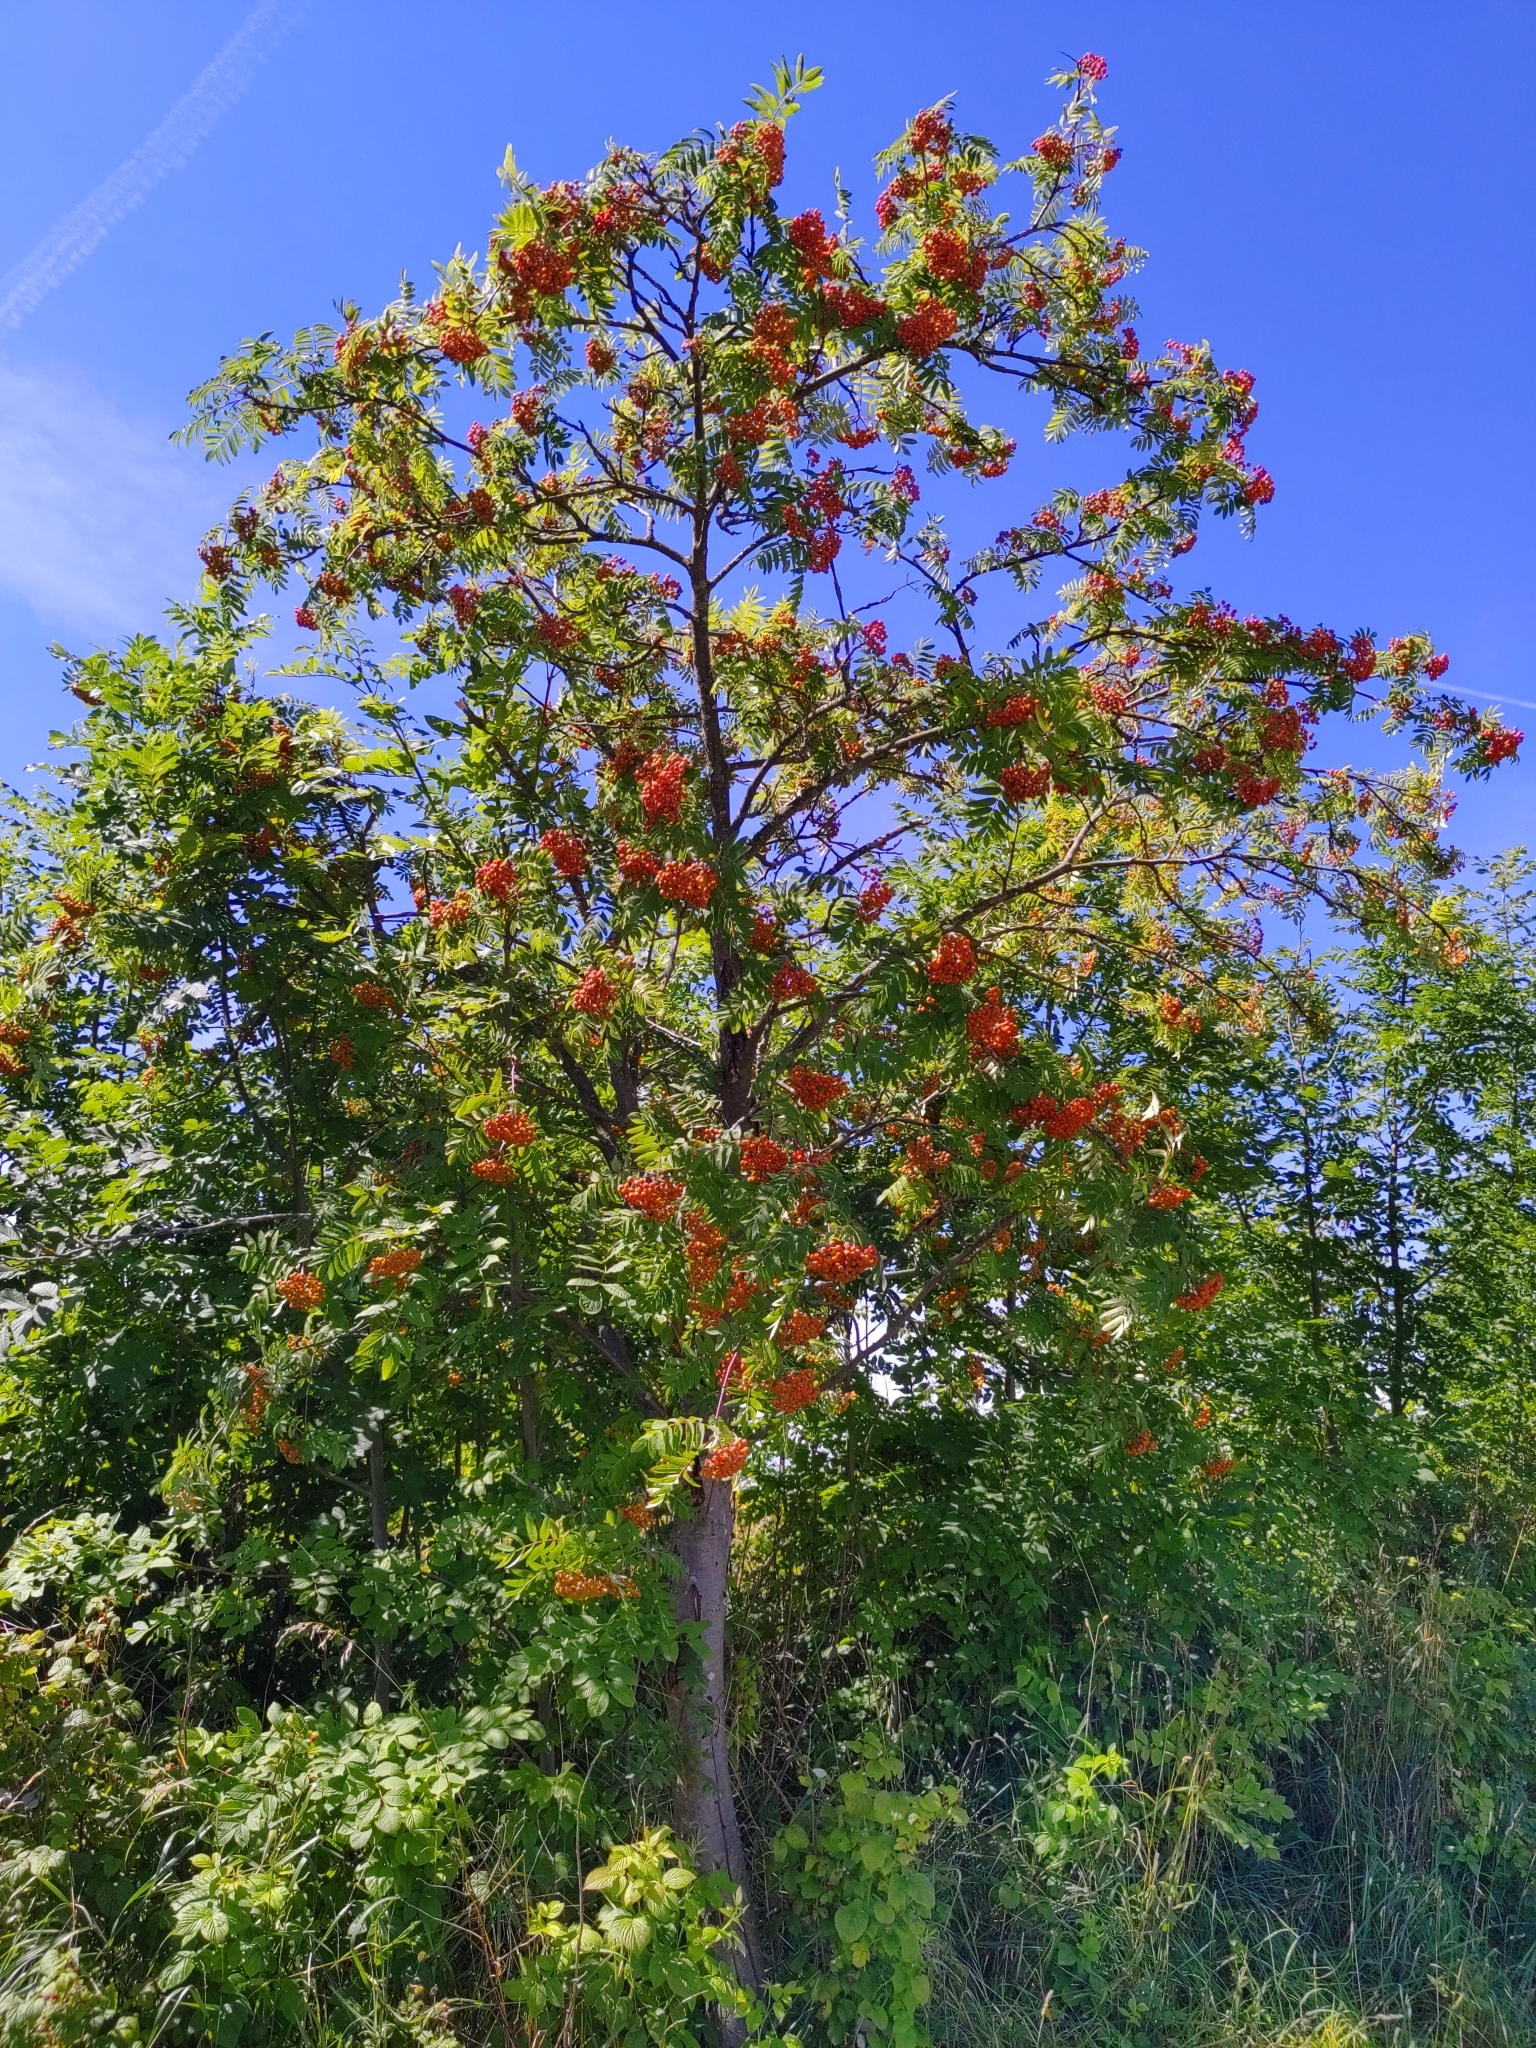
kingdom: Plantae
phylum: Tracheophyta
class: Magnoliopsida
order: Rosales
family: Rosaceae
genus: Sorbus
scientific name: Sorbus aucuparia
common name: Rowan
